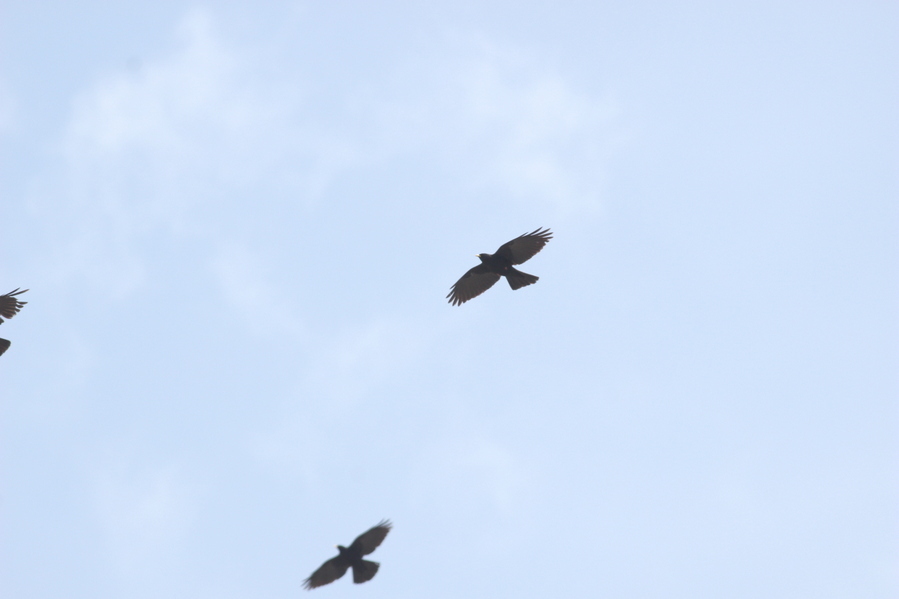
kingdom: Animalia
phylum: Chordata
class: Aves
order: Passeriformes
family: Corvidae
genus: Pyrrhocorax
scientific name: Pyrrhocorax graculus
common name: Alpine chough
